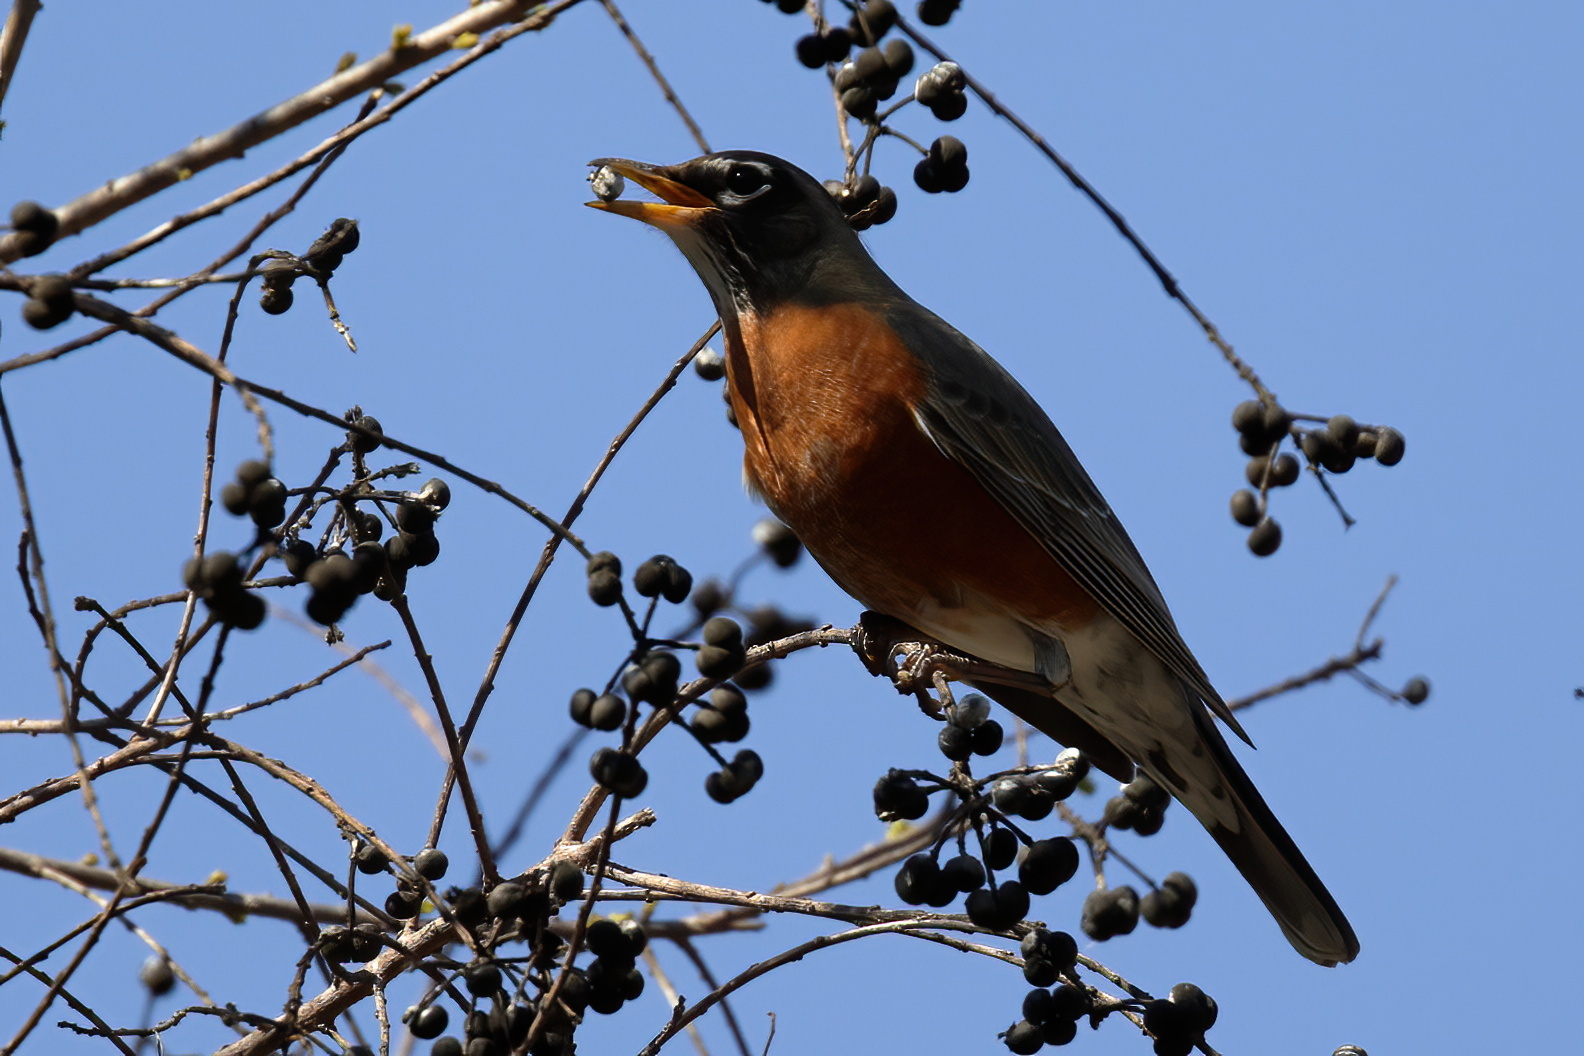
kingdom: Animalia
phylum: Chordata
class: Aves
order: Passeriformes
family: Turdidae
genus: Turdus
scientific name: Turdus migratorius
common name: American robin
